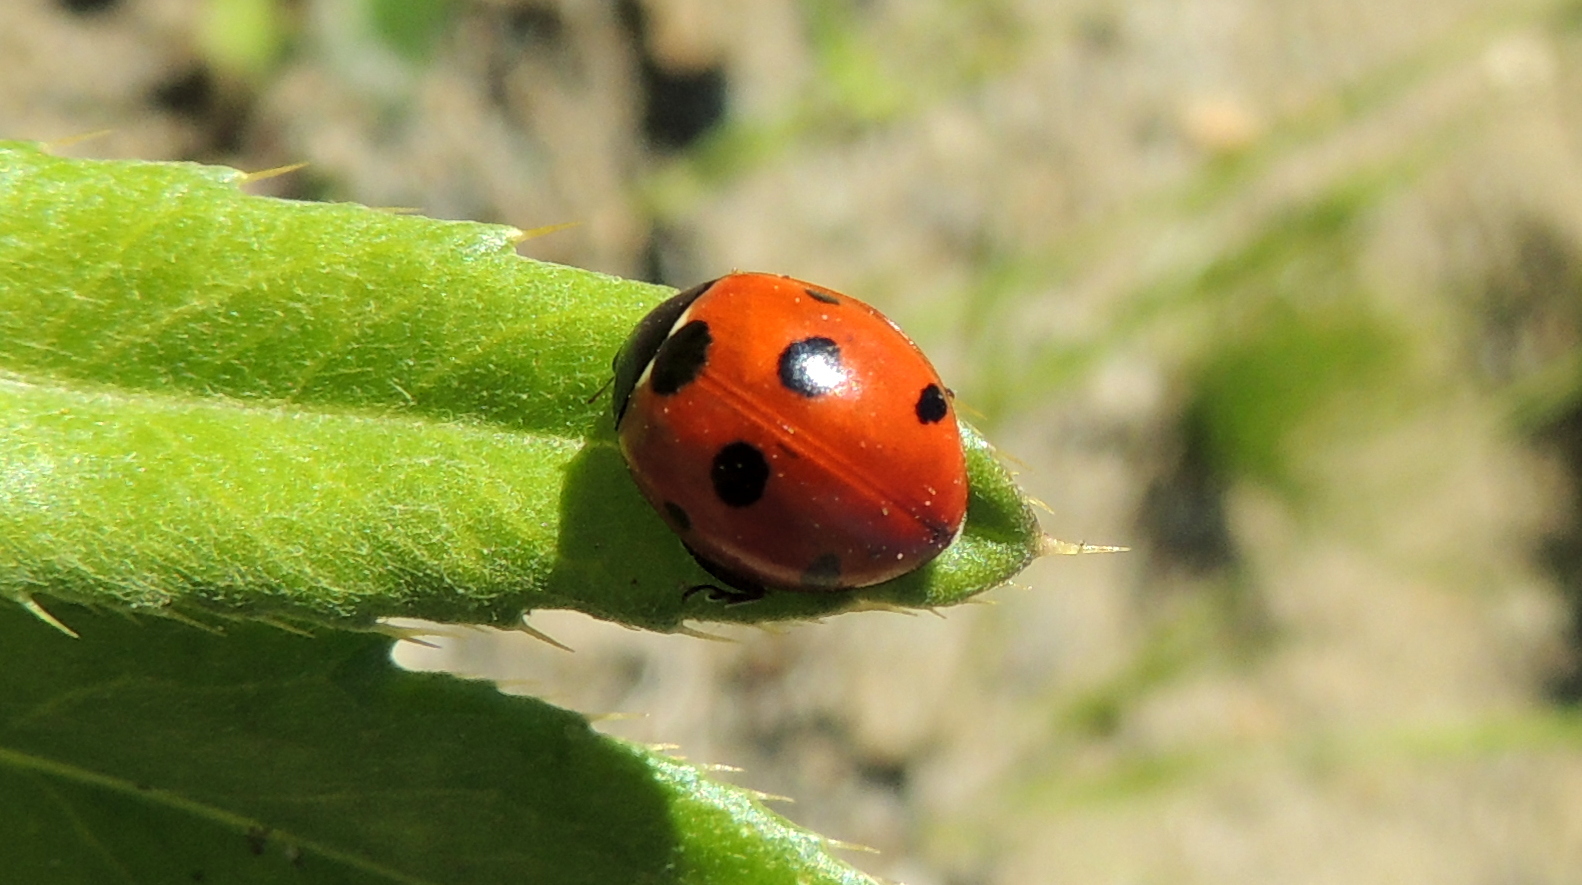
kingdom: Animalia
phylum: Arthropoda
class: Insecta
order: Coleoptera
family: Coccinellidae
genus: Coccinella
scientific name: Coccinella septempunctata
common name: Sevenspotted lady beetle
